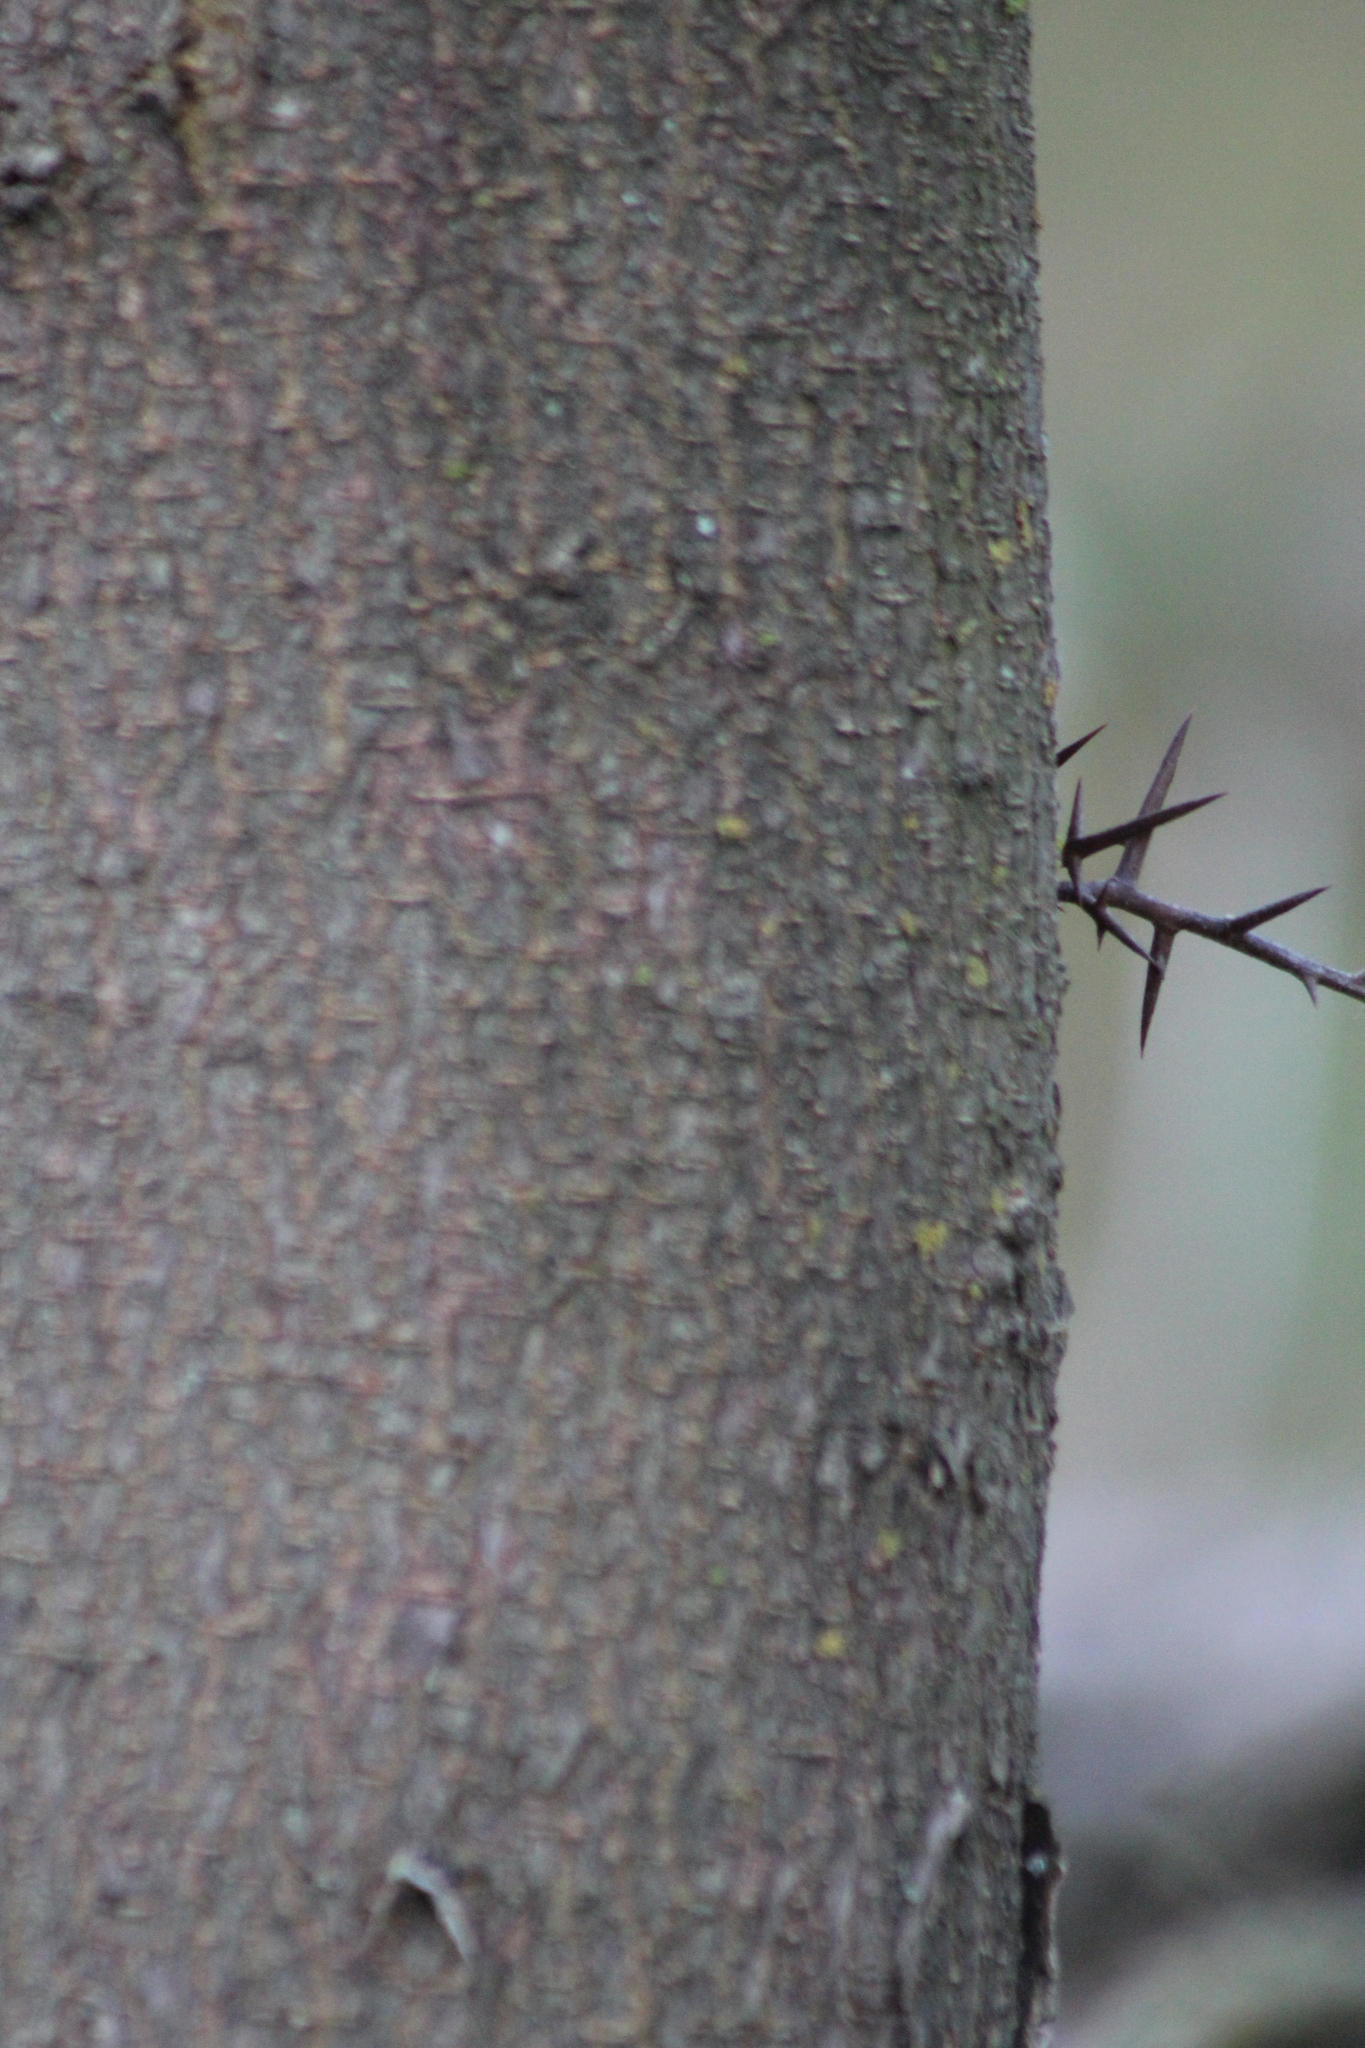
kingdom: Plantae
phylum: Tracheophyta
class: Magnoliopsida
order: Fabales
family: Fabaceae
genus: Gleditsia
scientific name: Gleditsia triacanthos
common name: Common honeylocust
